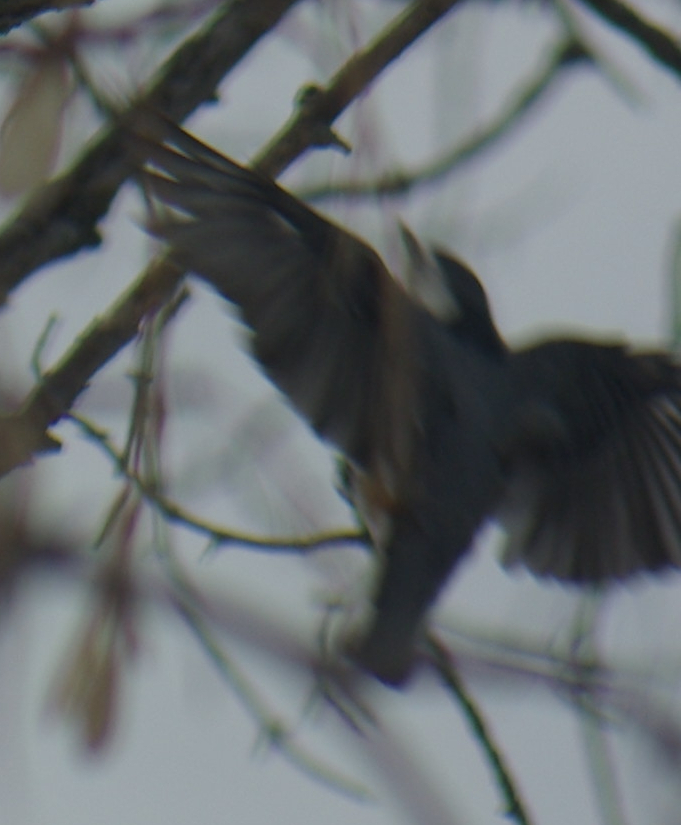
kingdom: Animalia
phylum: Chordata
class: Aves
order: Passeriformes
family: Sittidae
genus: Sitta
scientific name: Sitta carolinensis
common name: White-breasted nuthatch
